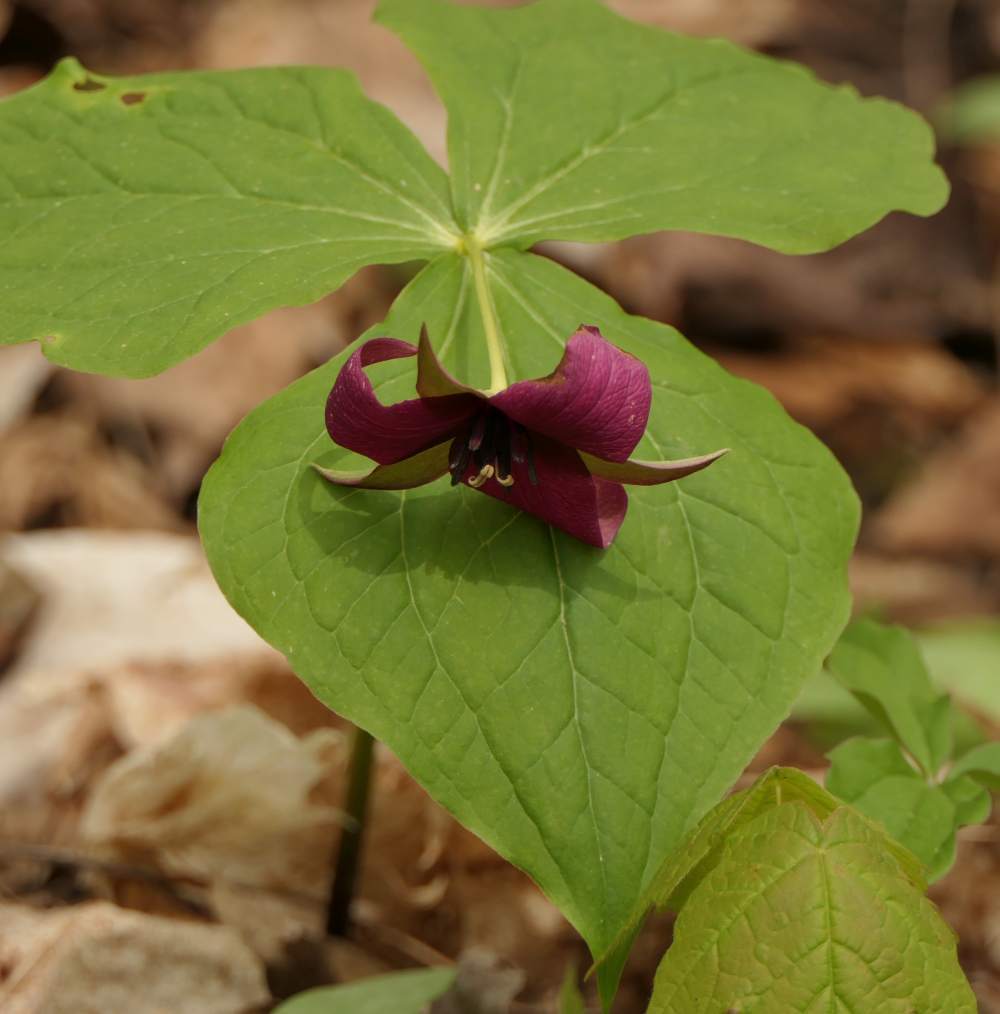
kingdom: Plantae
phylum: Tracheophyta
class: Liliopsida
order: Liliales
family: Melanthiaceae
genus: Trillium
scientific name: Trillium erectum
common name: Purple trillium
